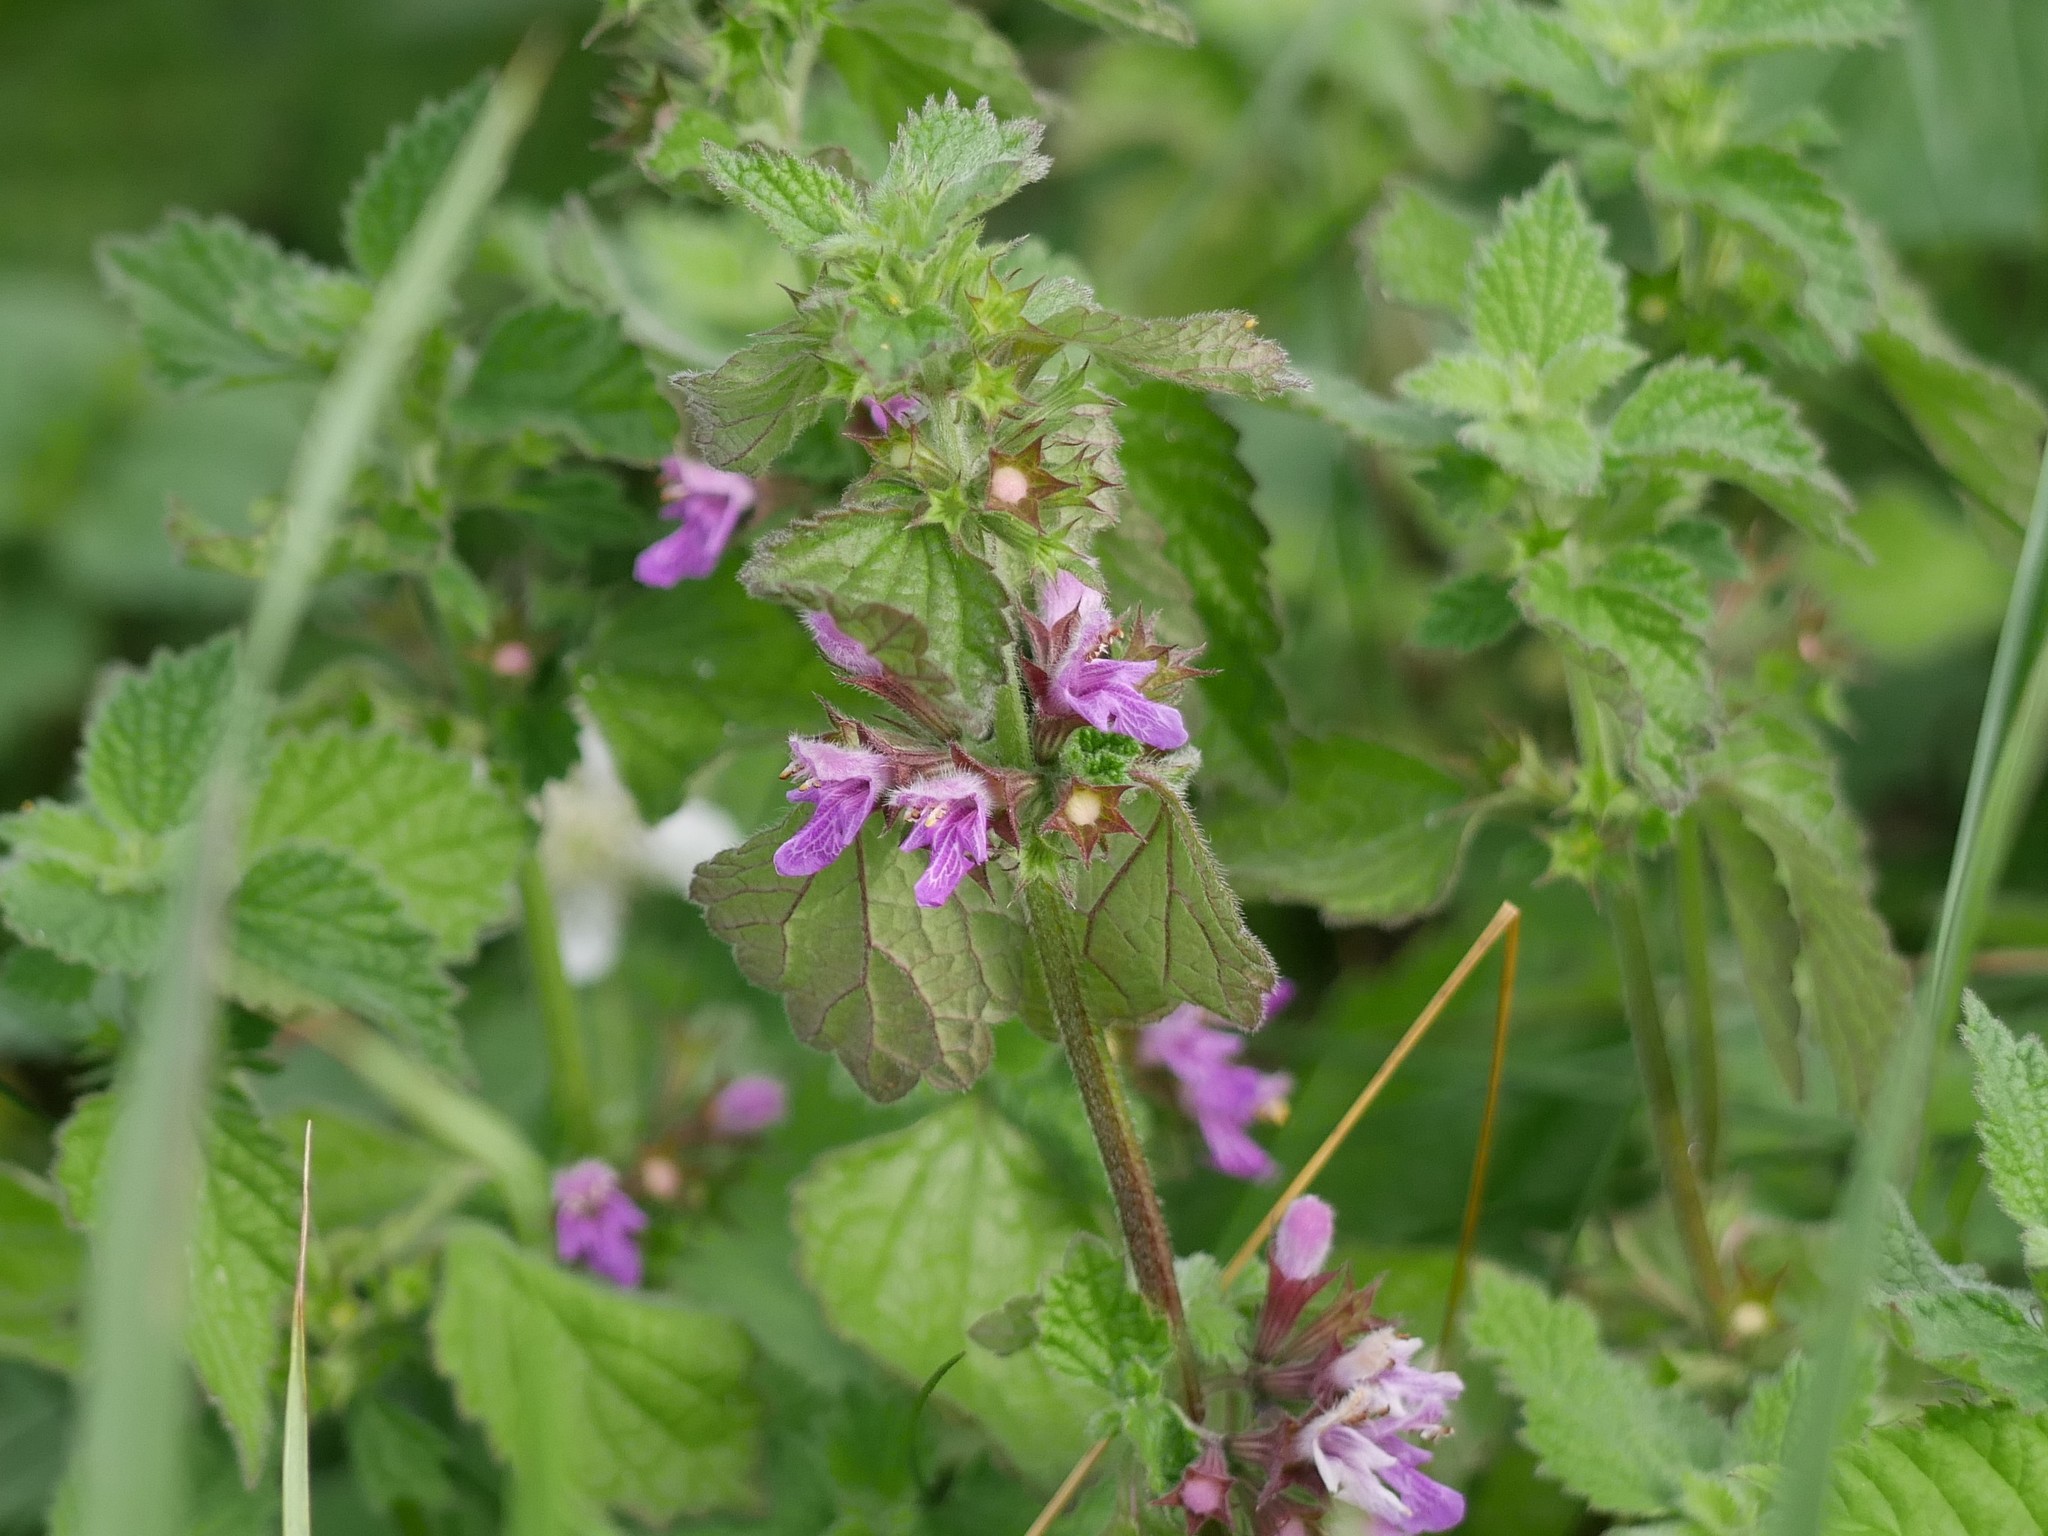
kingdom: Plantae
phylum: Tracheophyta
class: Magnoliopsida
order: Lamiales
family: Lamiaceae
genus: Ballota
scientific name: Ballota nigra
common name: Black horehound
